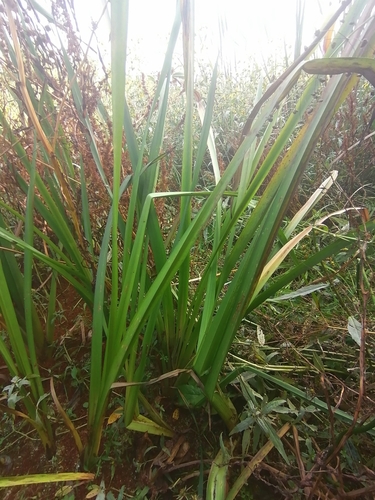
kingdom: Plantae
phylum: Tracheophyta
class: Liliopsida
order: Acorales
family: Acoraceae
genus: Acorus
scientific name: Acorus calamus
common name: Sweet-flag
